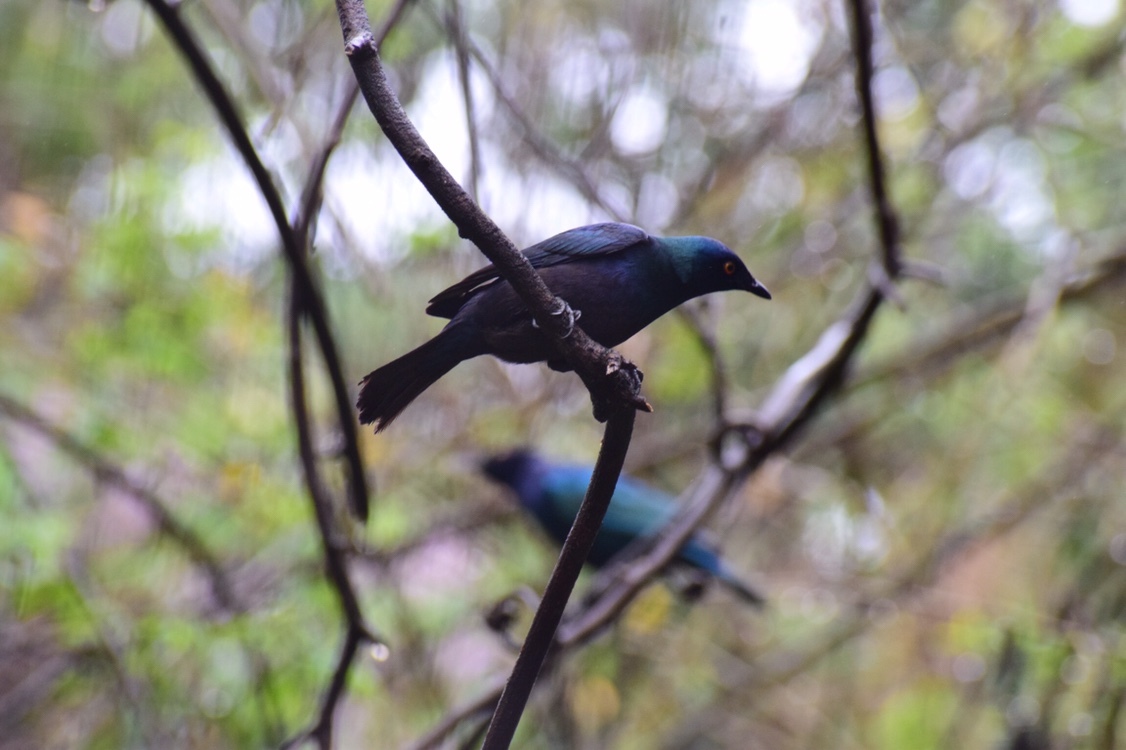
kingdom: Animalia
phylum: Chordata
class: Aves
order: Passeriformes
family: Sturnidae
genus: Notopholia
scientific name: Notopholia corrusca
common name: Black-bellied starling
